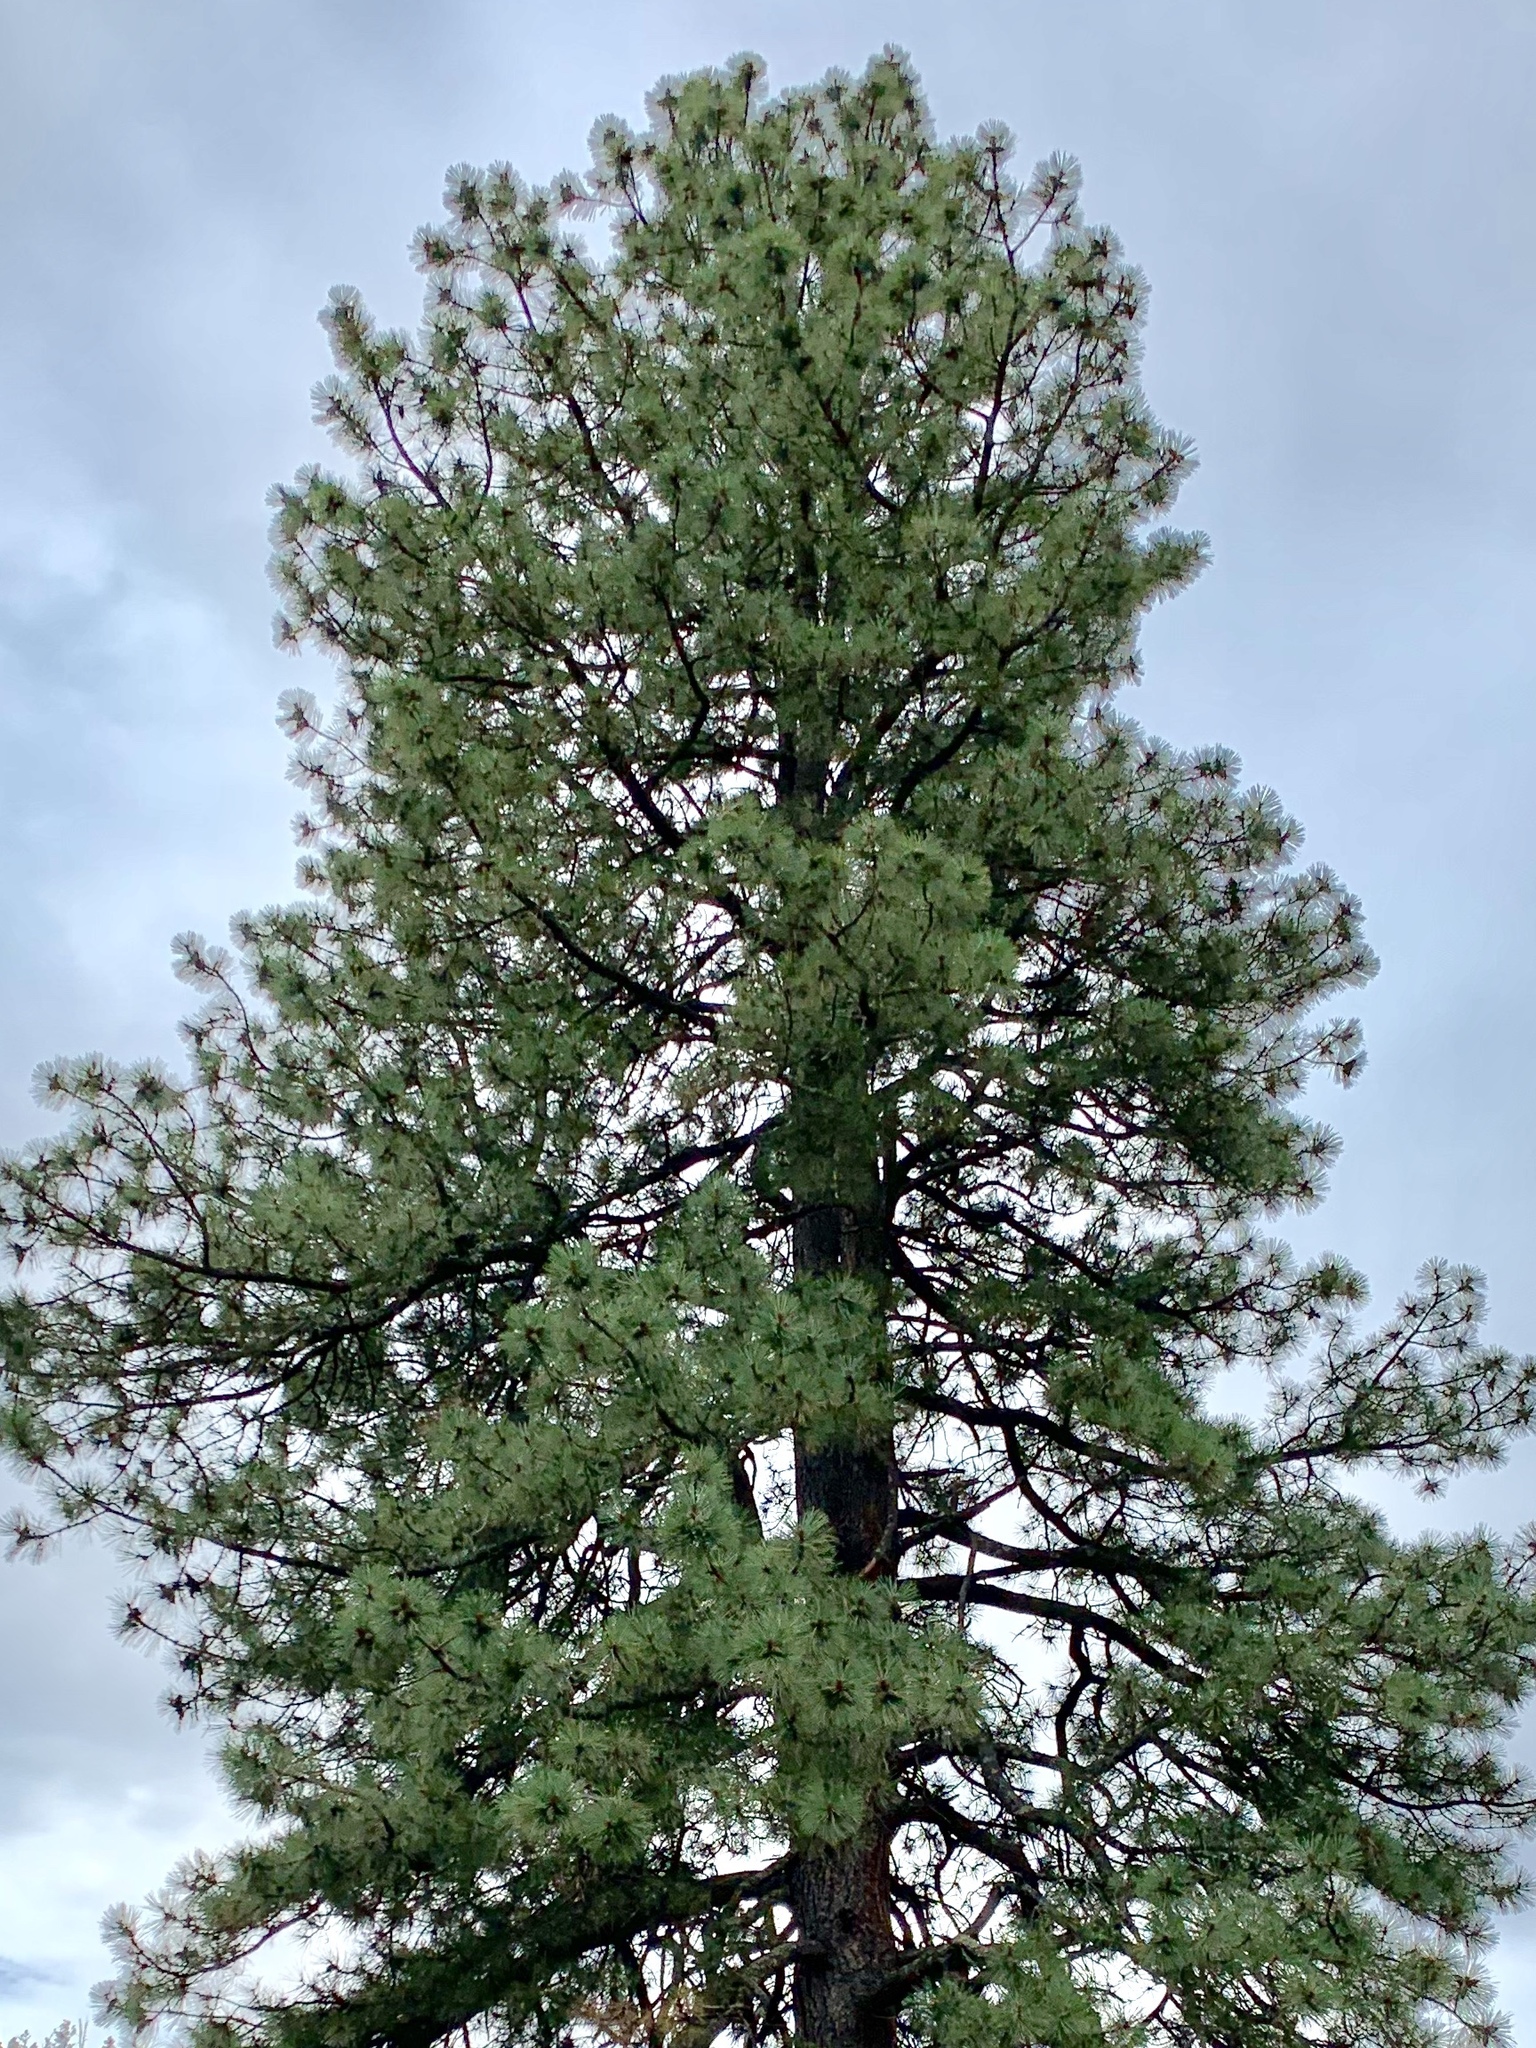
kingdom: Plantae
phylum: Tracheophyta
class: Pinopsida
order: Pinales
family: Pinaceae
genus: Pinus
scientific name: Pinus ponderosa
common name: Western yellow-pine
